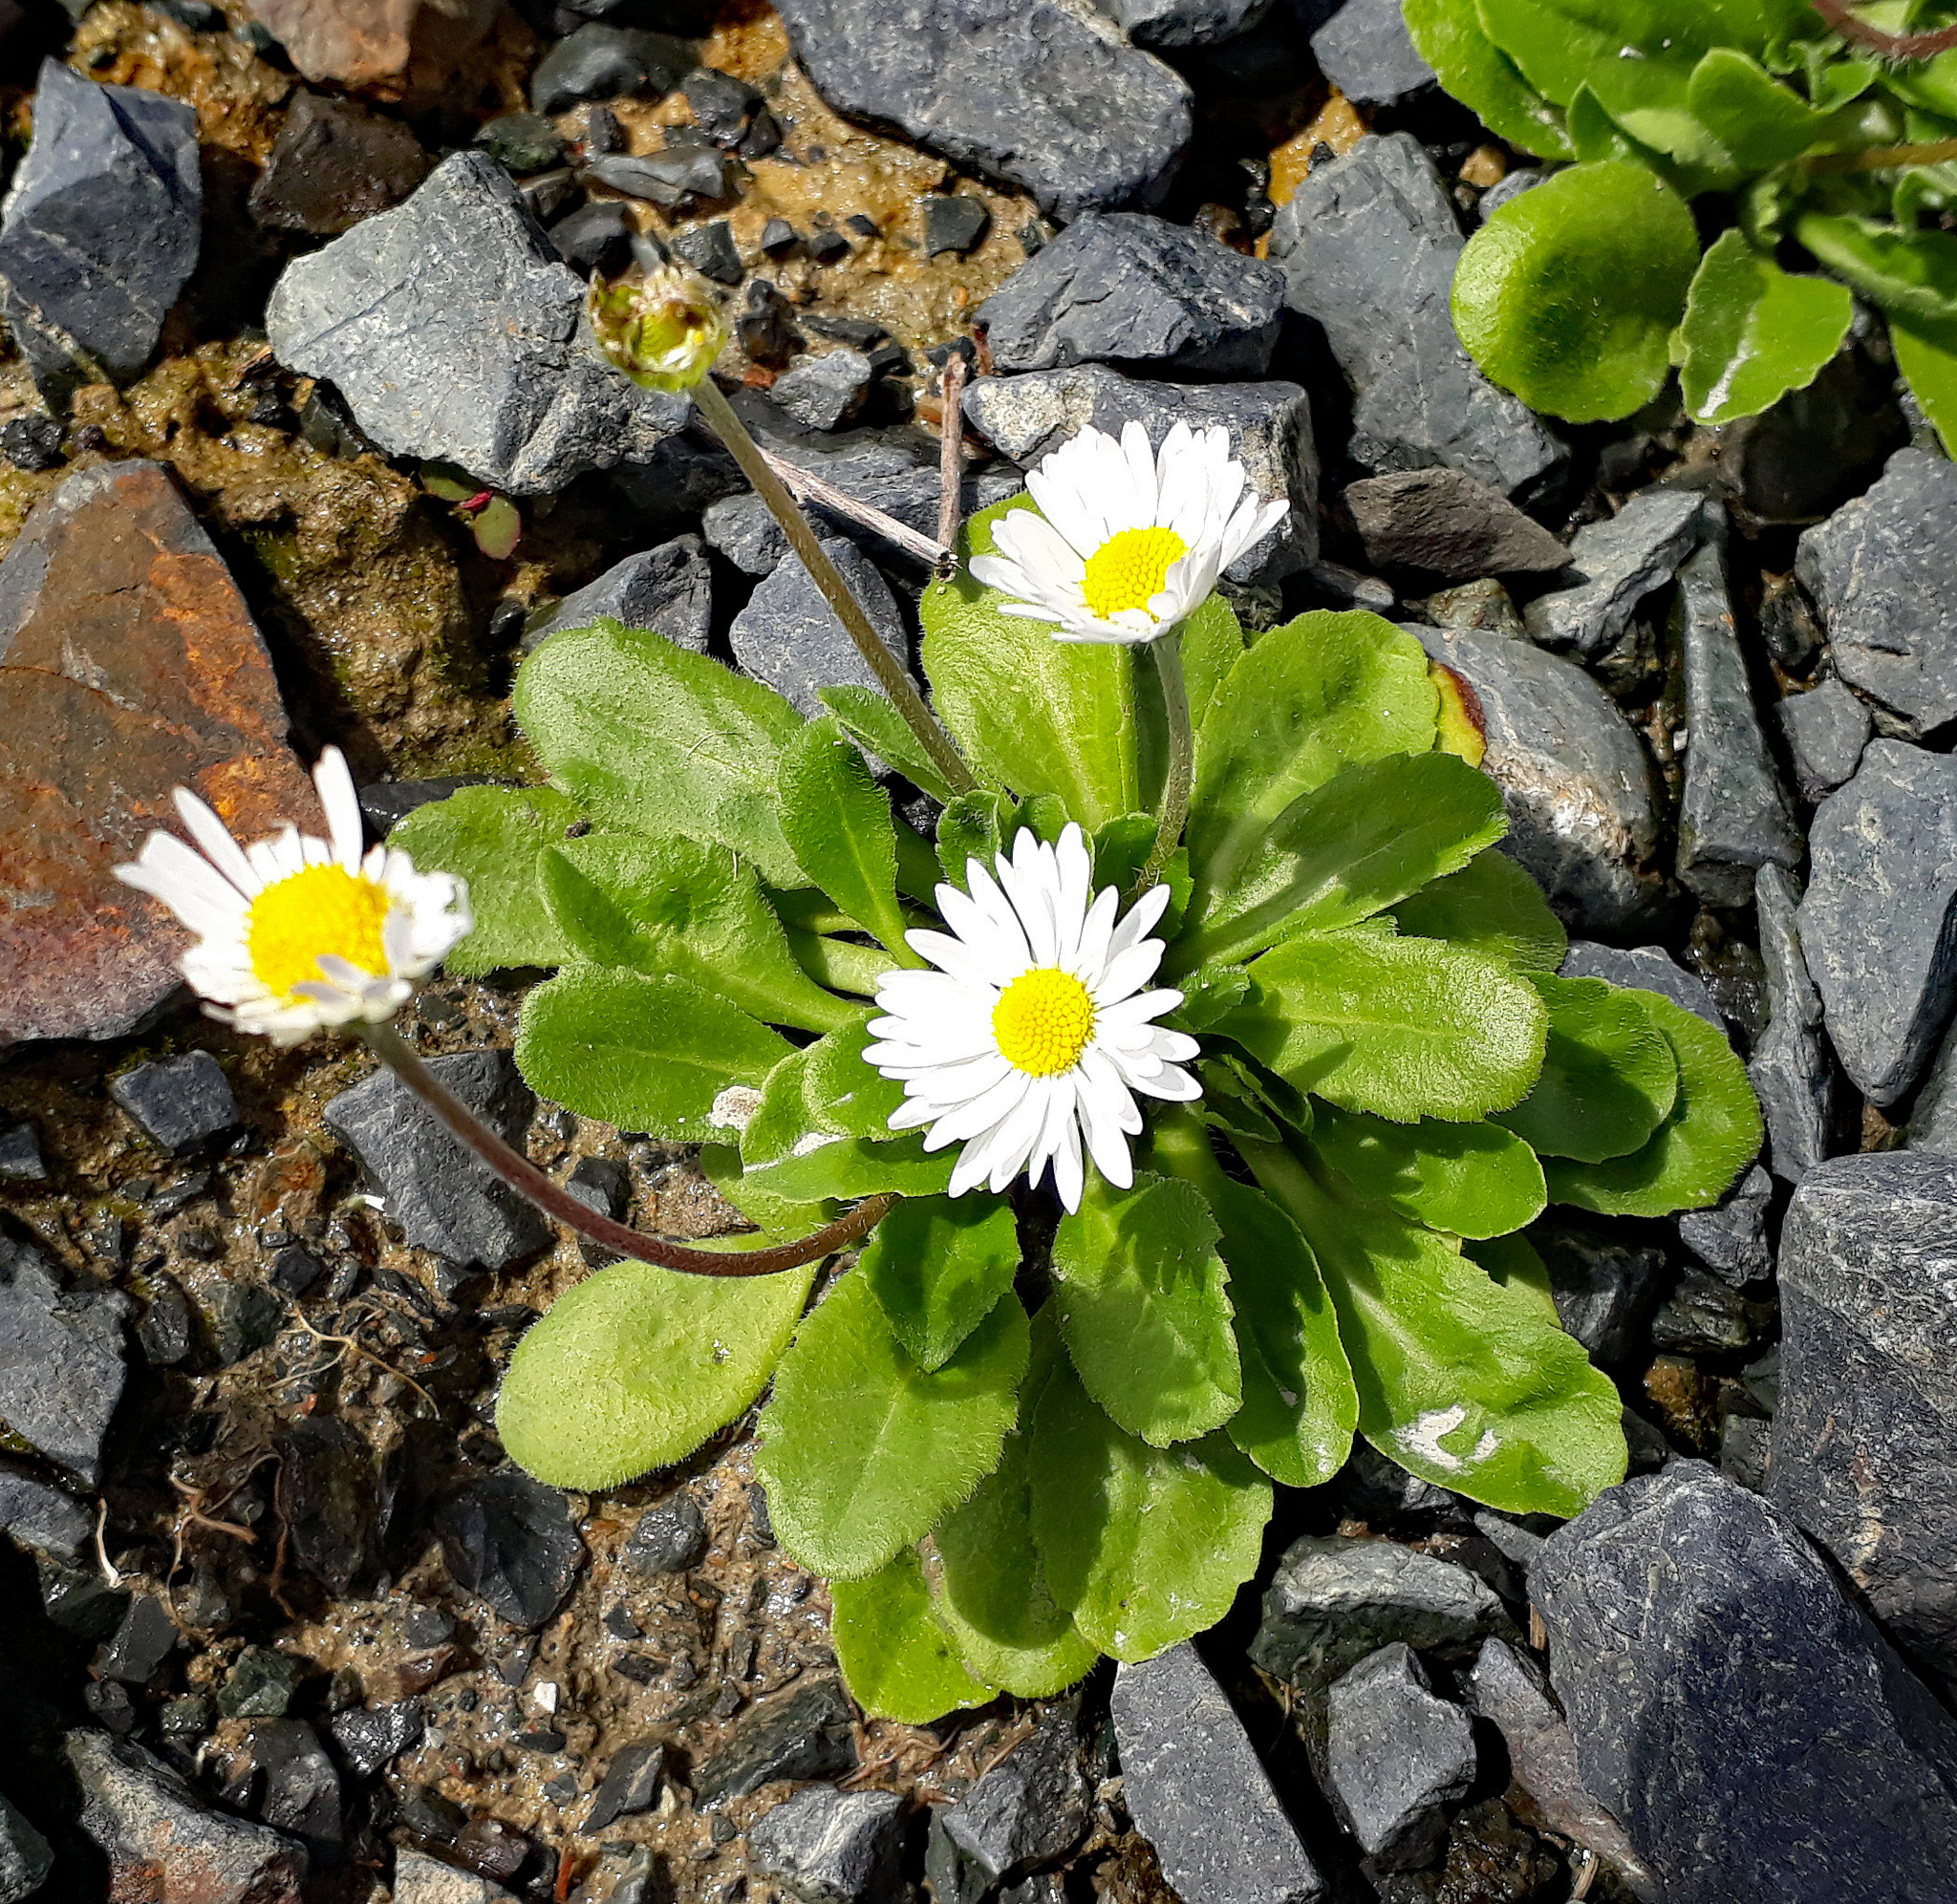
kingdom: Plantae
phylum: Tracheophyta
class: Magnoliopsida
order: Asterales
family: Asteraceae
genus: Bellis
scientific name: Bellis perennis
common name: Lawndaisy
